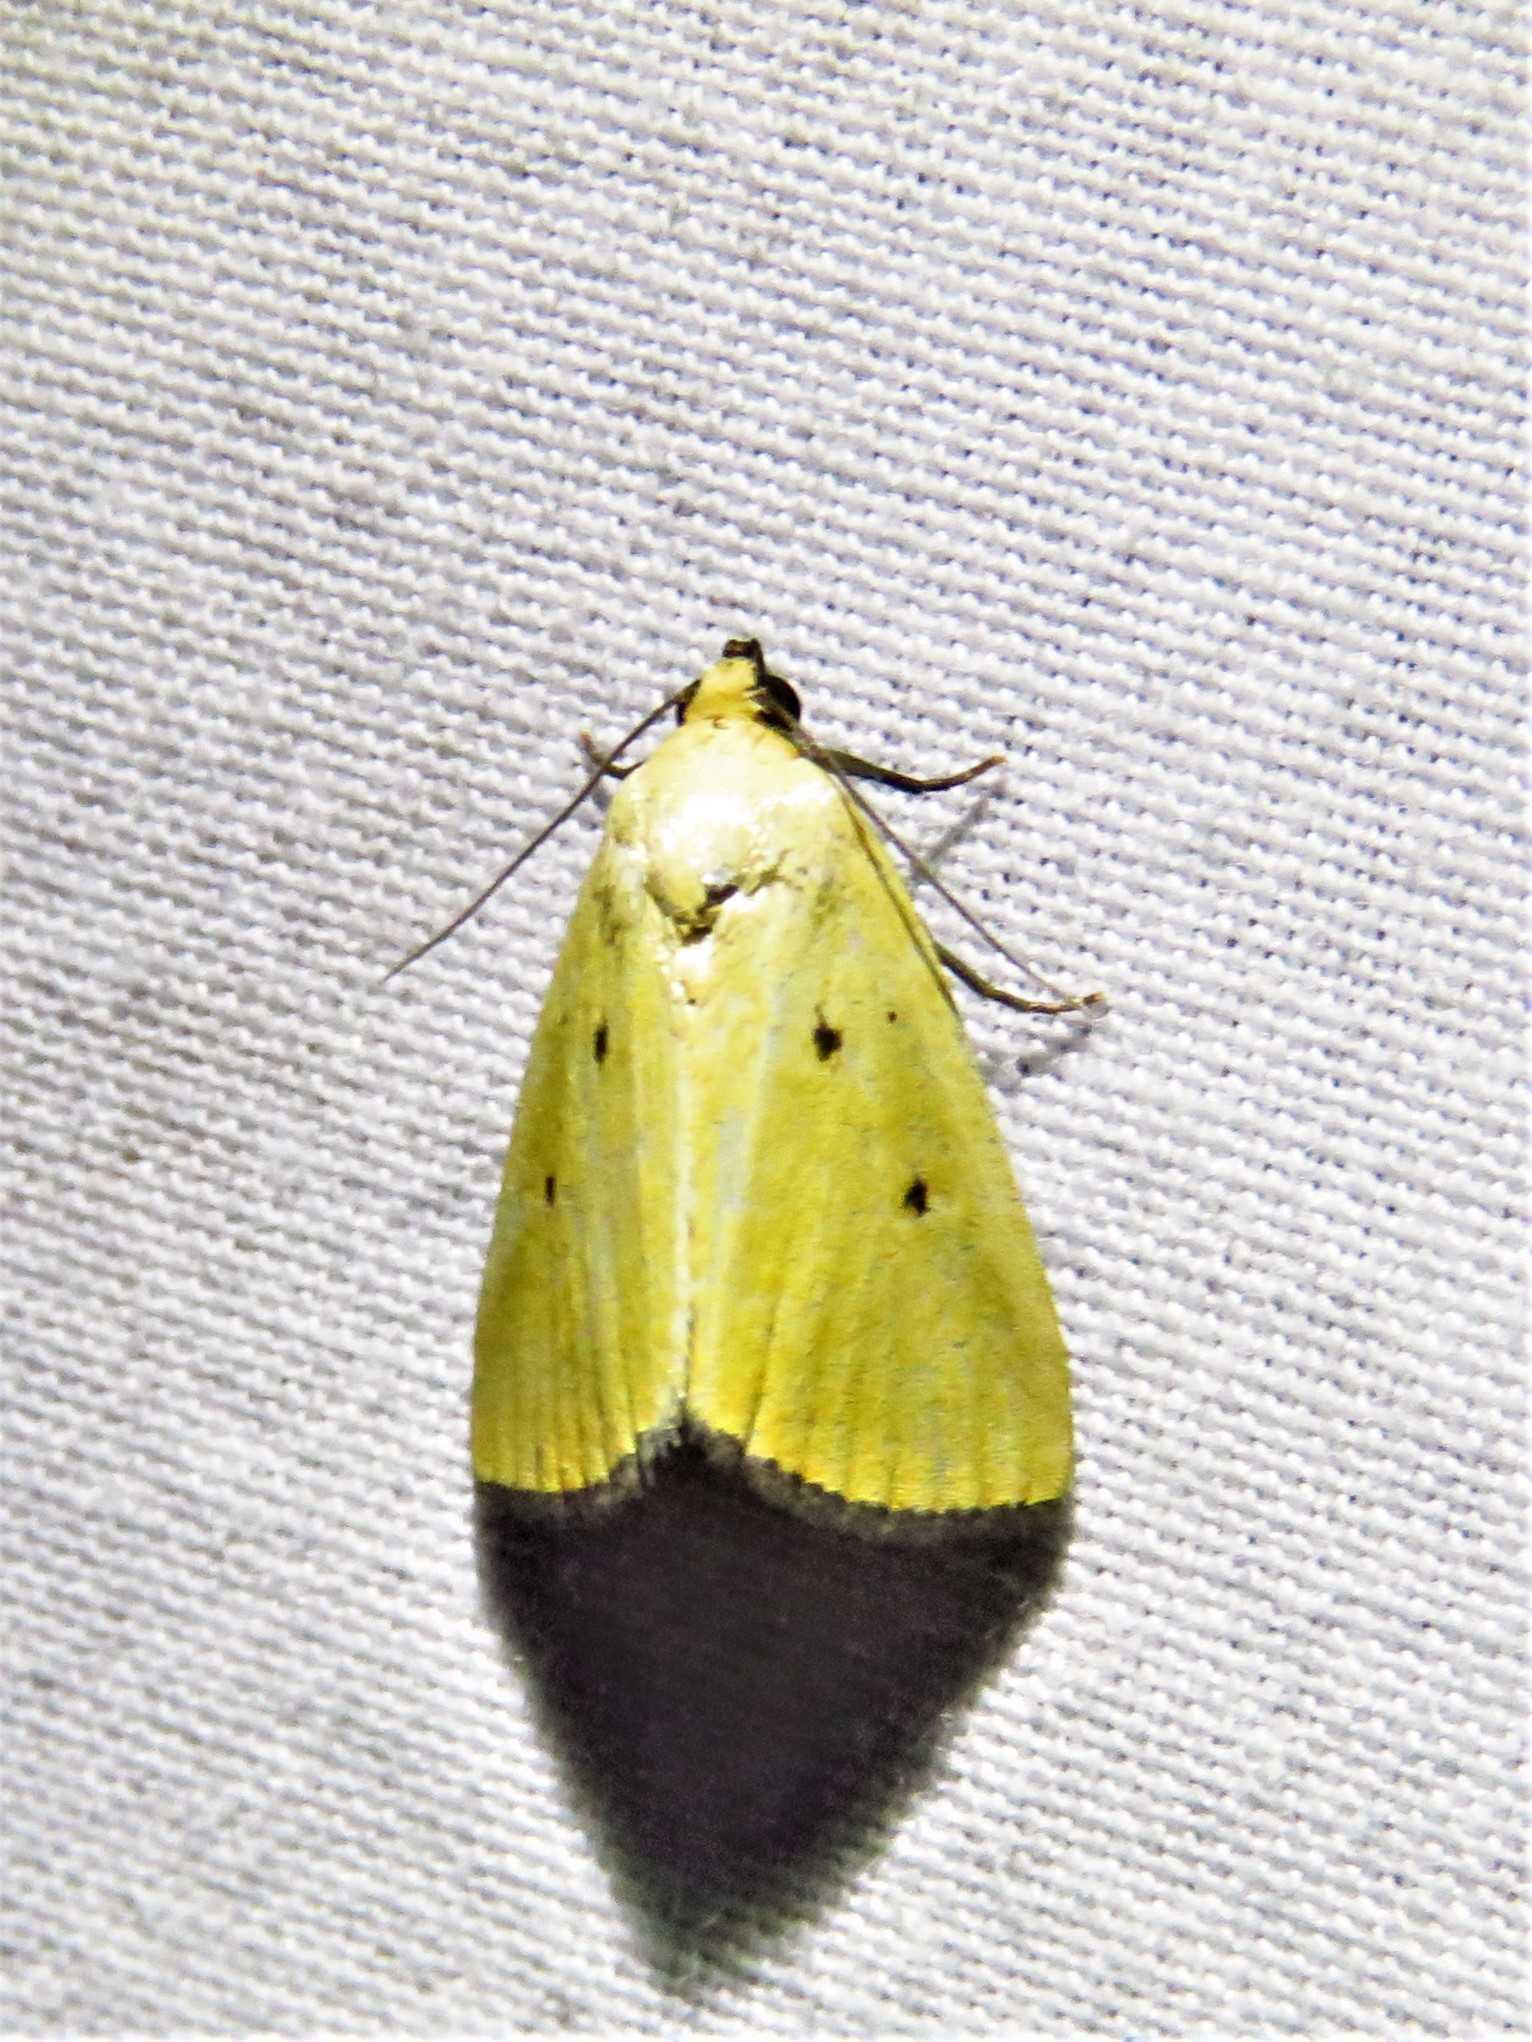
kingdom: Animalia
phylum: Arthropoda
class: Insecta
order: Lepidoptera
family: Noctuidae
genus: Marimatha
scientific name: Marimatha nigrofimbria
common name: Black-bordered lemon moth
